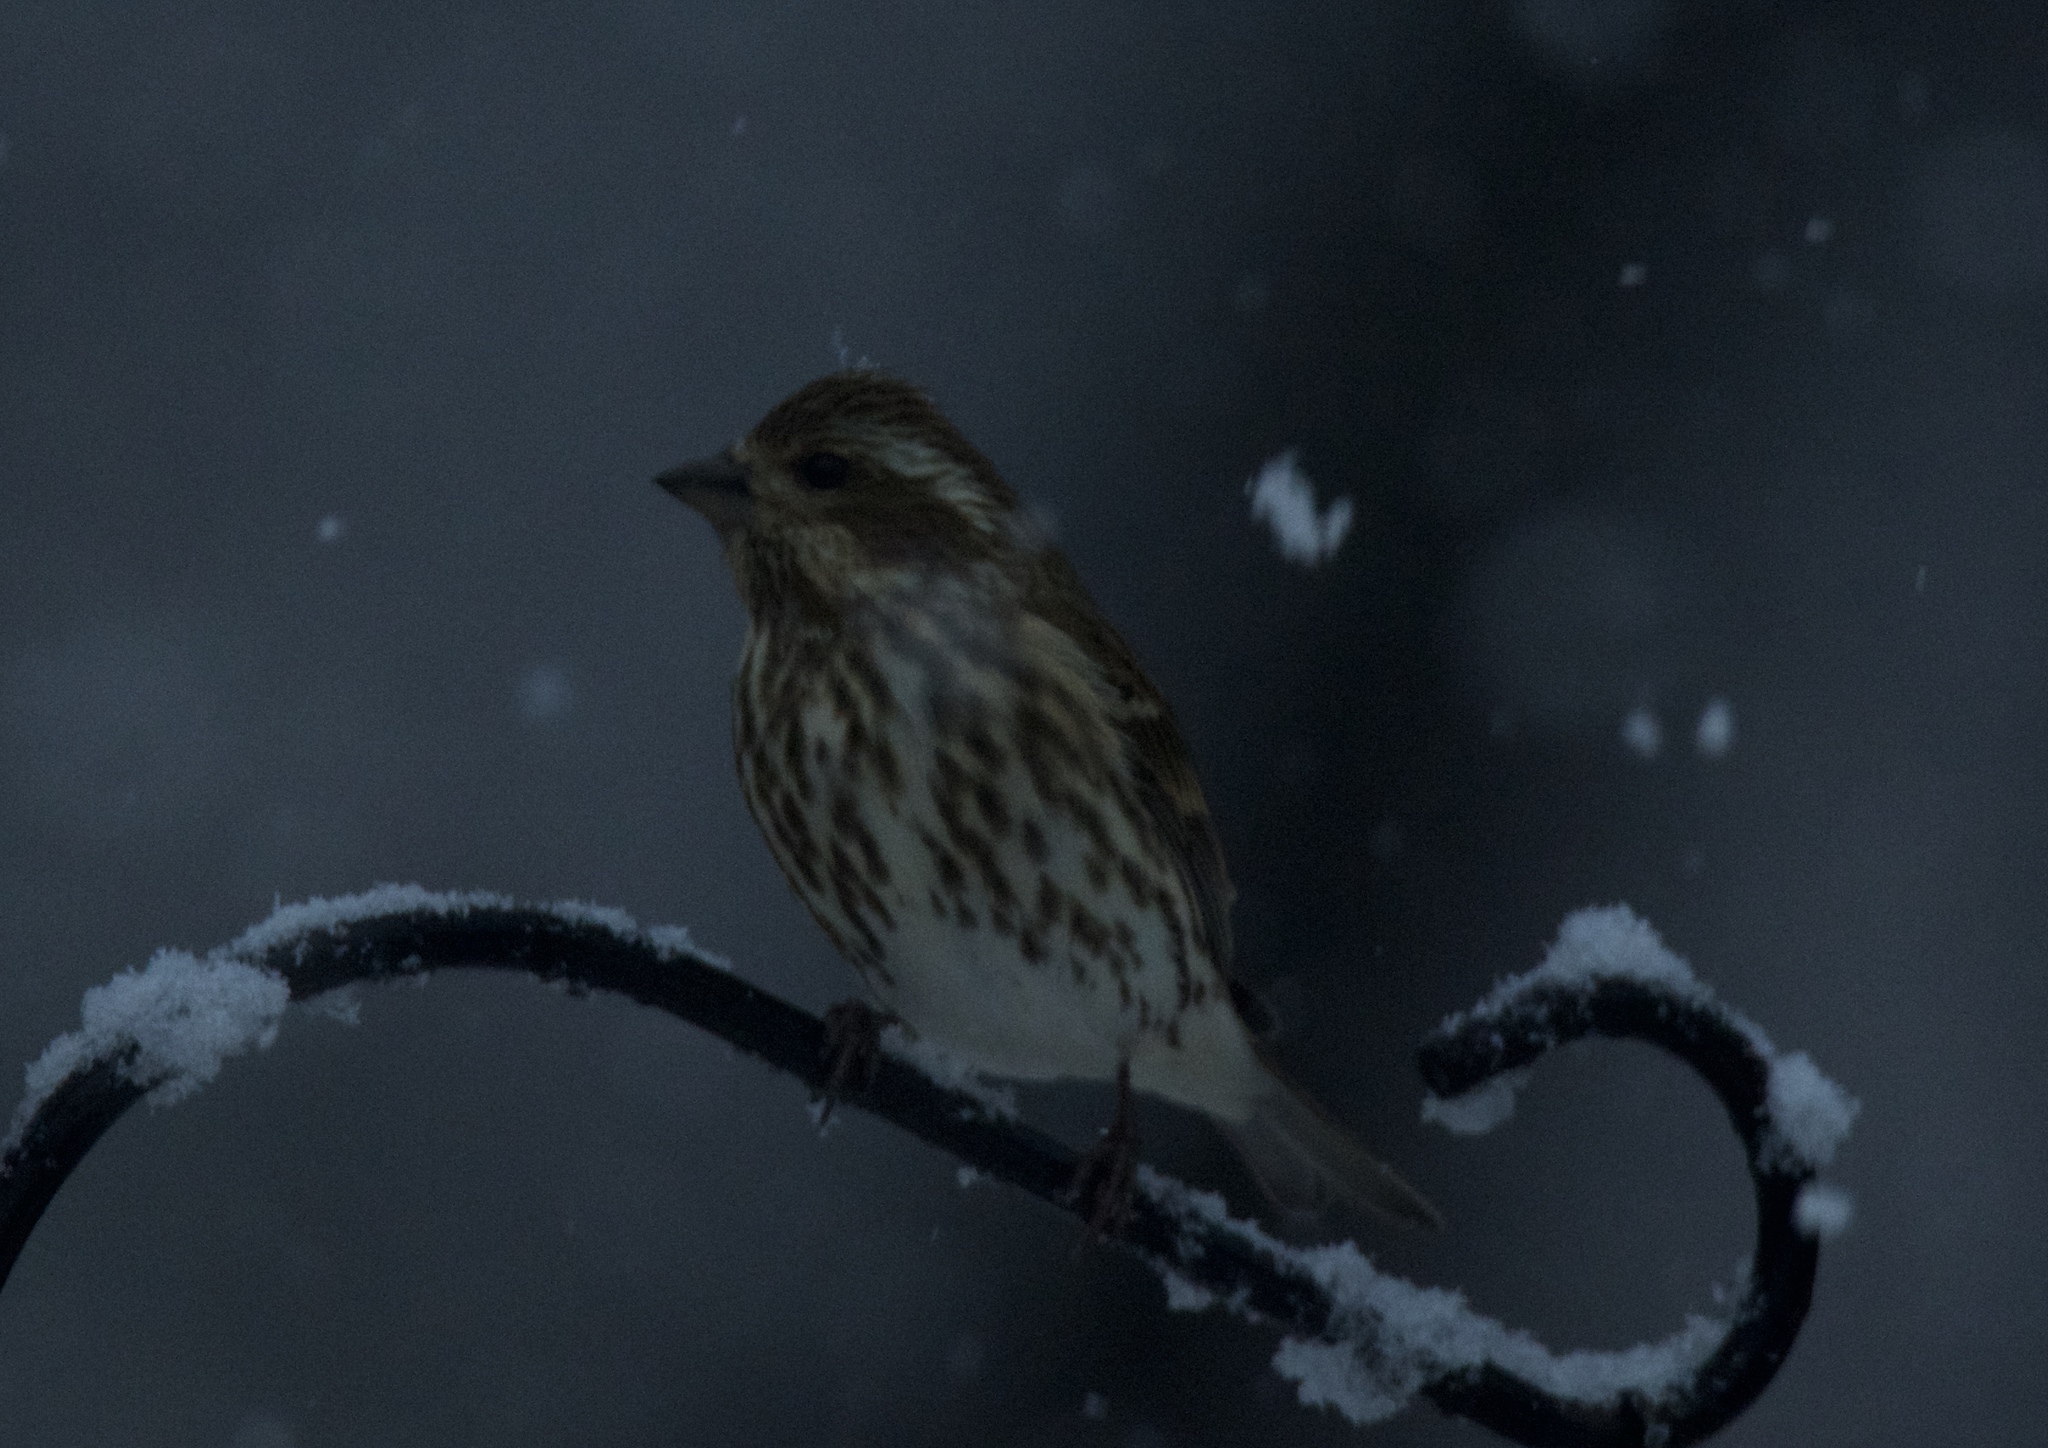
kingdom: Animalia
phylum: Chordata
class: Aves
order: Passeriformes
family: Fringillidae
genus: Haemorhous
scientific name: Haemorhous purpureus
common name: Purple finch
